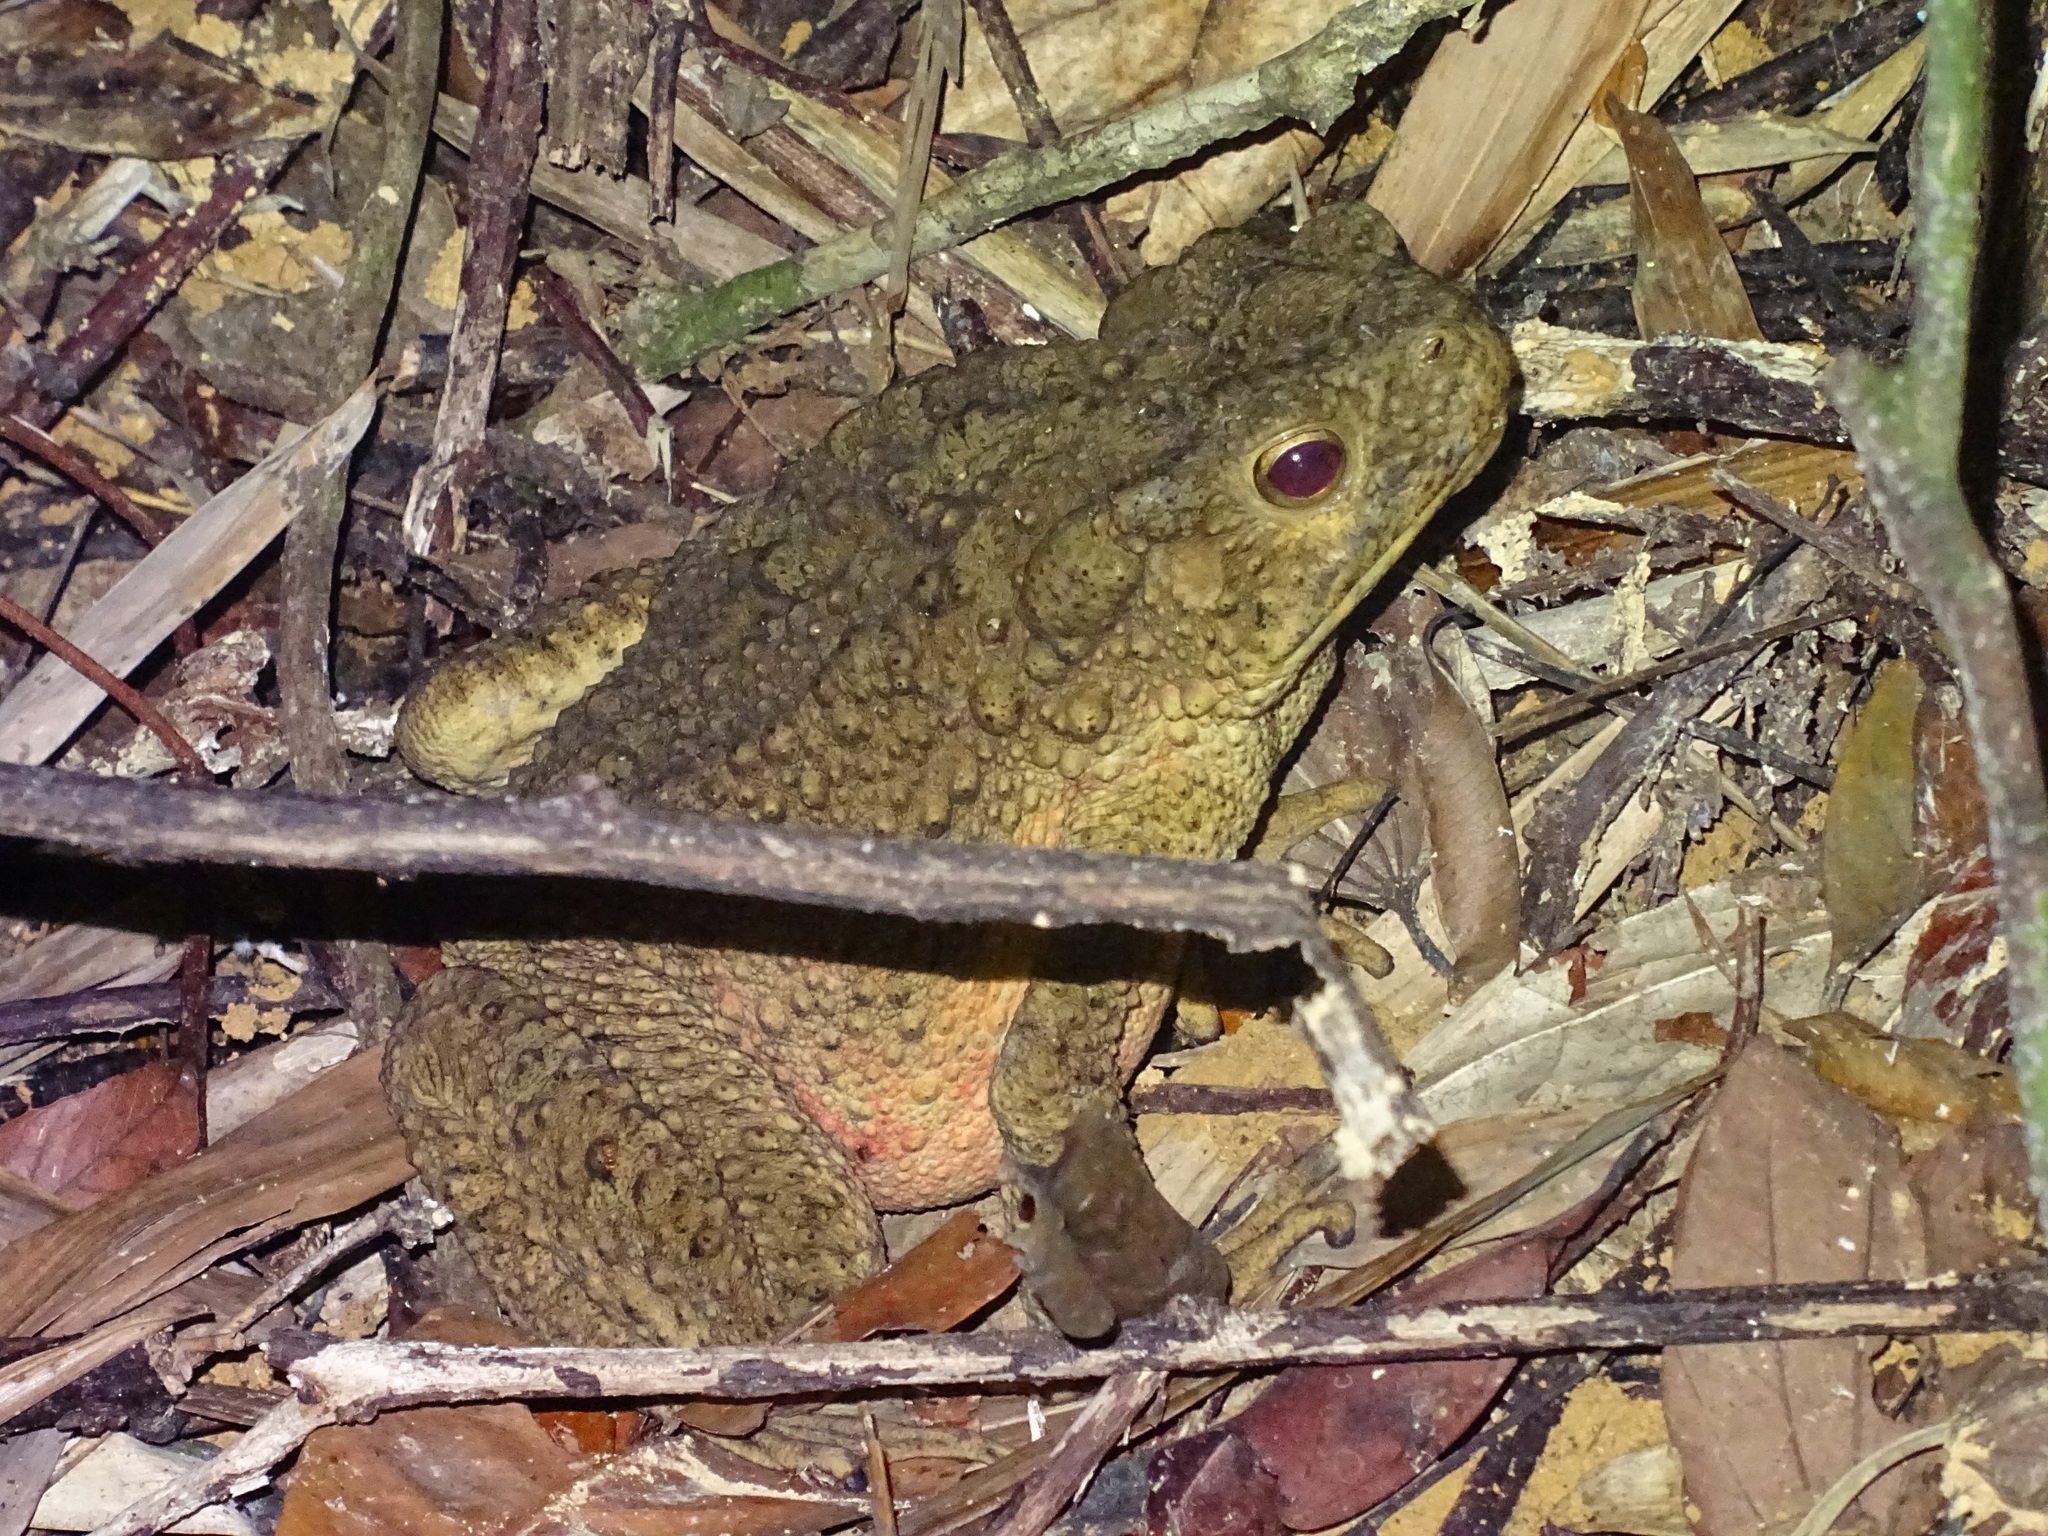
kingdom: Animalia
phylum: Chordata
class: Amphibia
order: Anura
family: Bufonidae
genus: Phrynoidis
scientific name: Phrynoidis asper
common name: Asian giant toad
